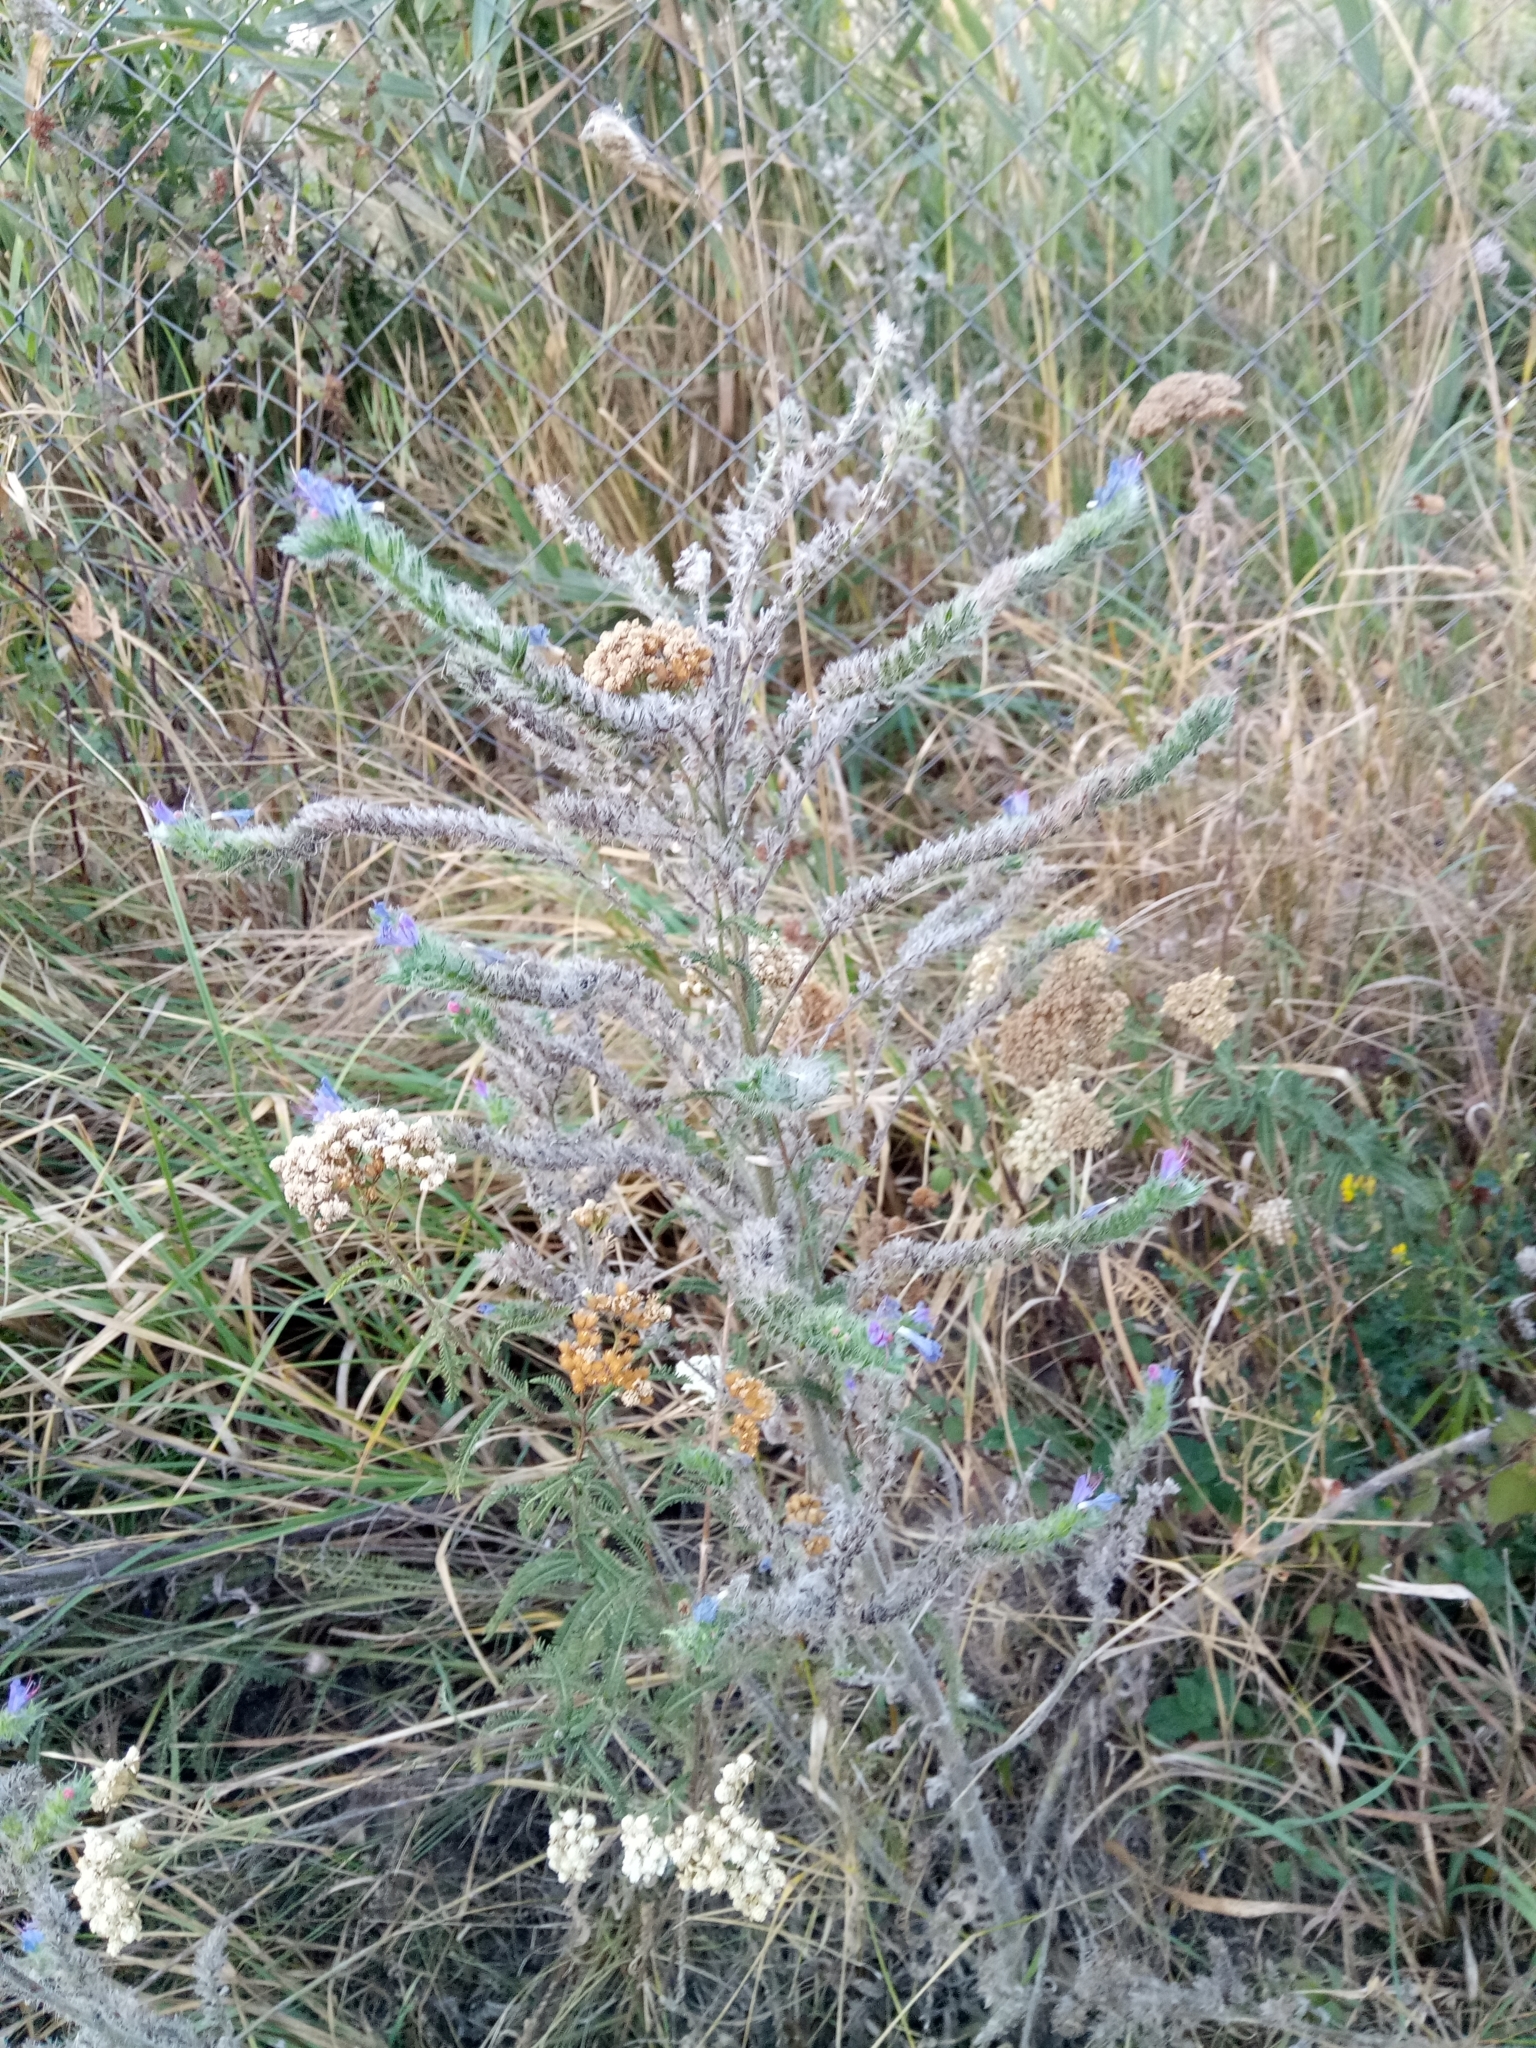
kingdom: Plantae
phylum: Tracheophyta
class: Magnoliopsida
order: Boraginales
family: Boraginaceae
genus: Echium
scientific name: Echium vulgare
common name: Common viper's bugloss
